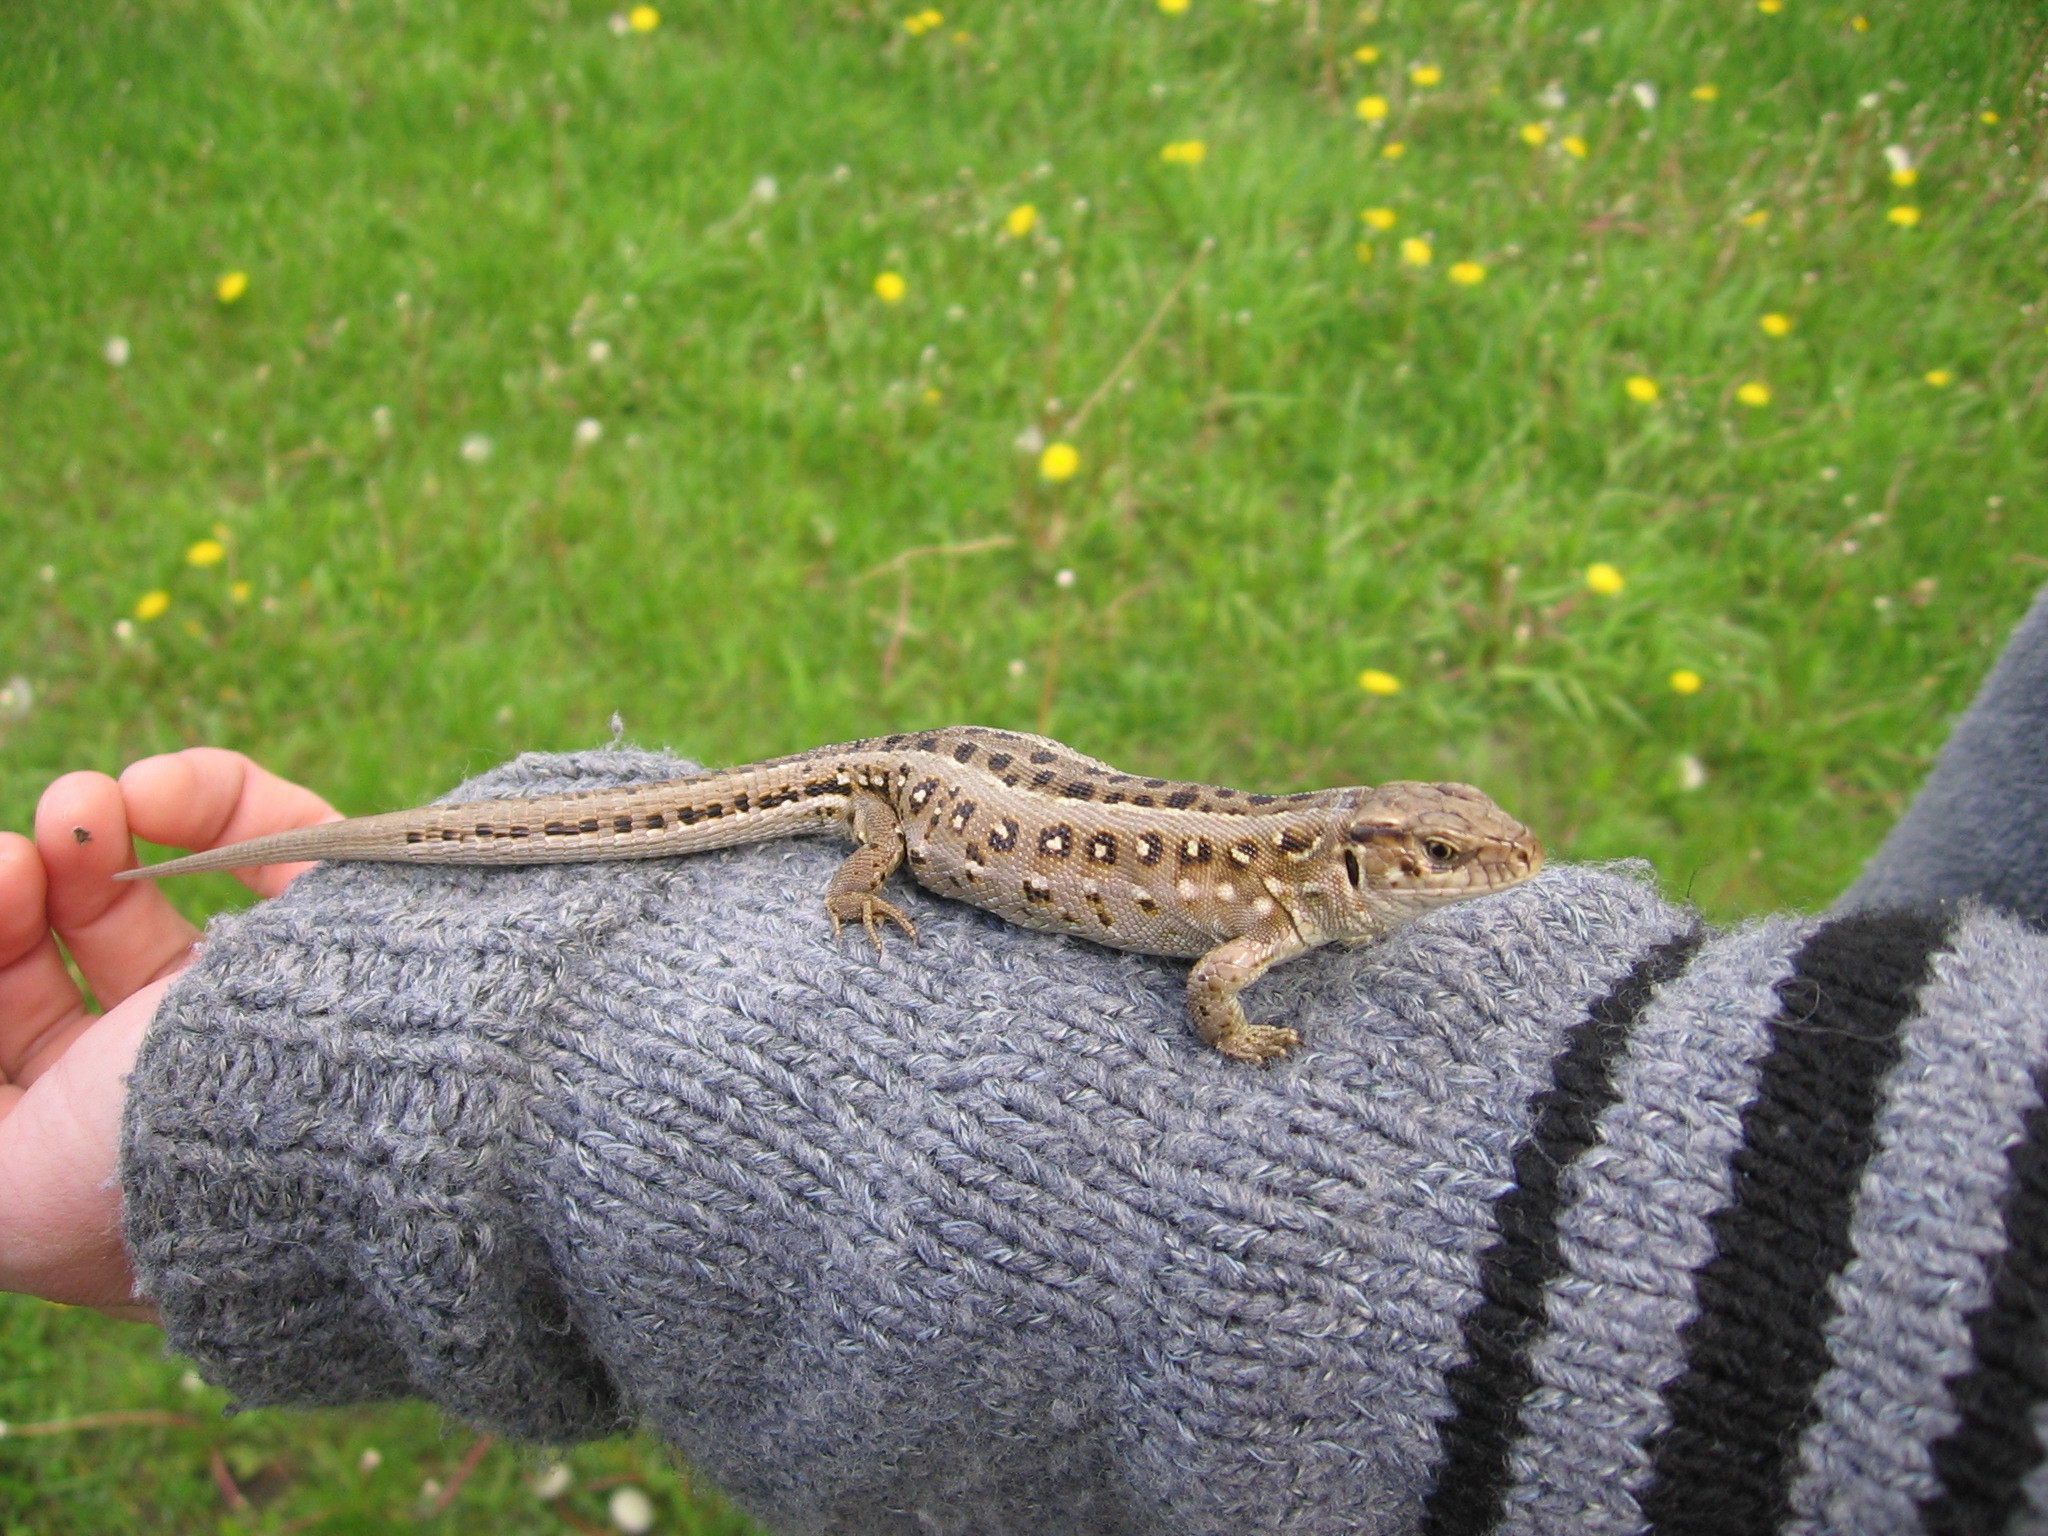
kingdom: Animalia
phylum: Chordata
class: Squamata
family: Lacertidae
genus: Lacerta
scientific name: Lacerta agilis
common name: Sand lizard
